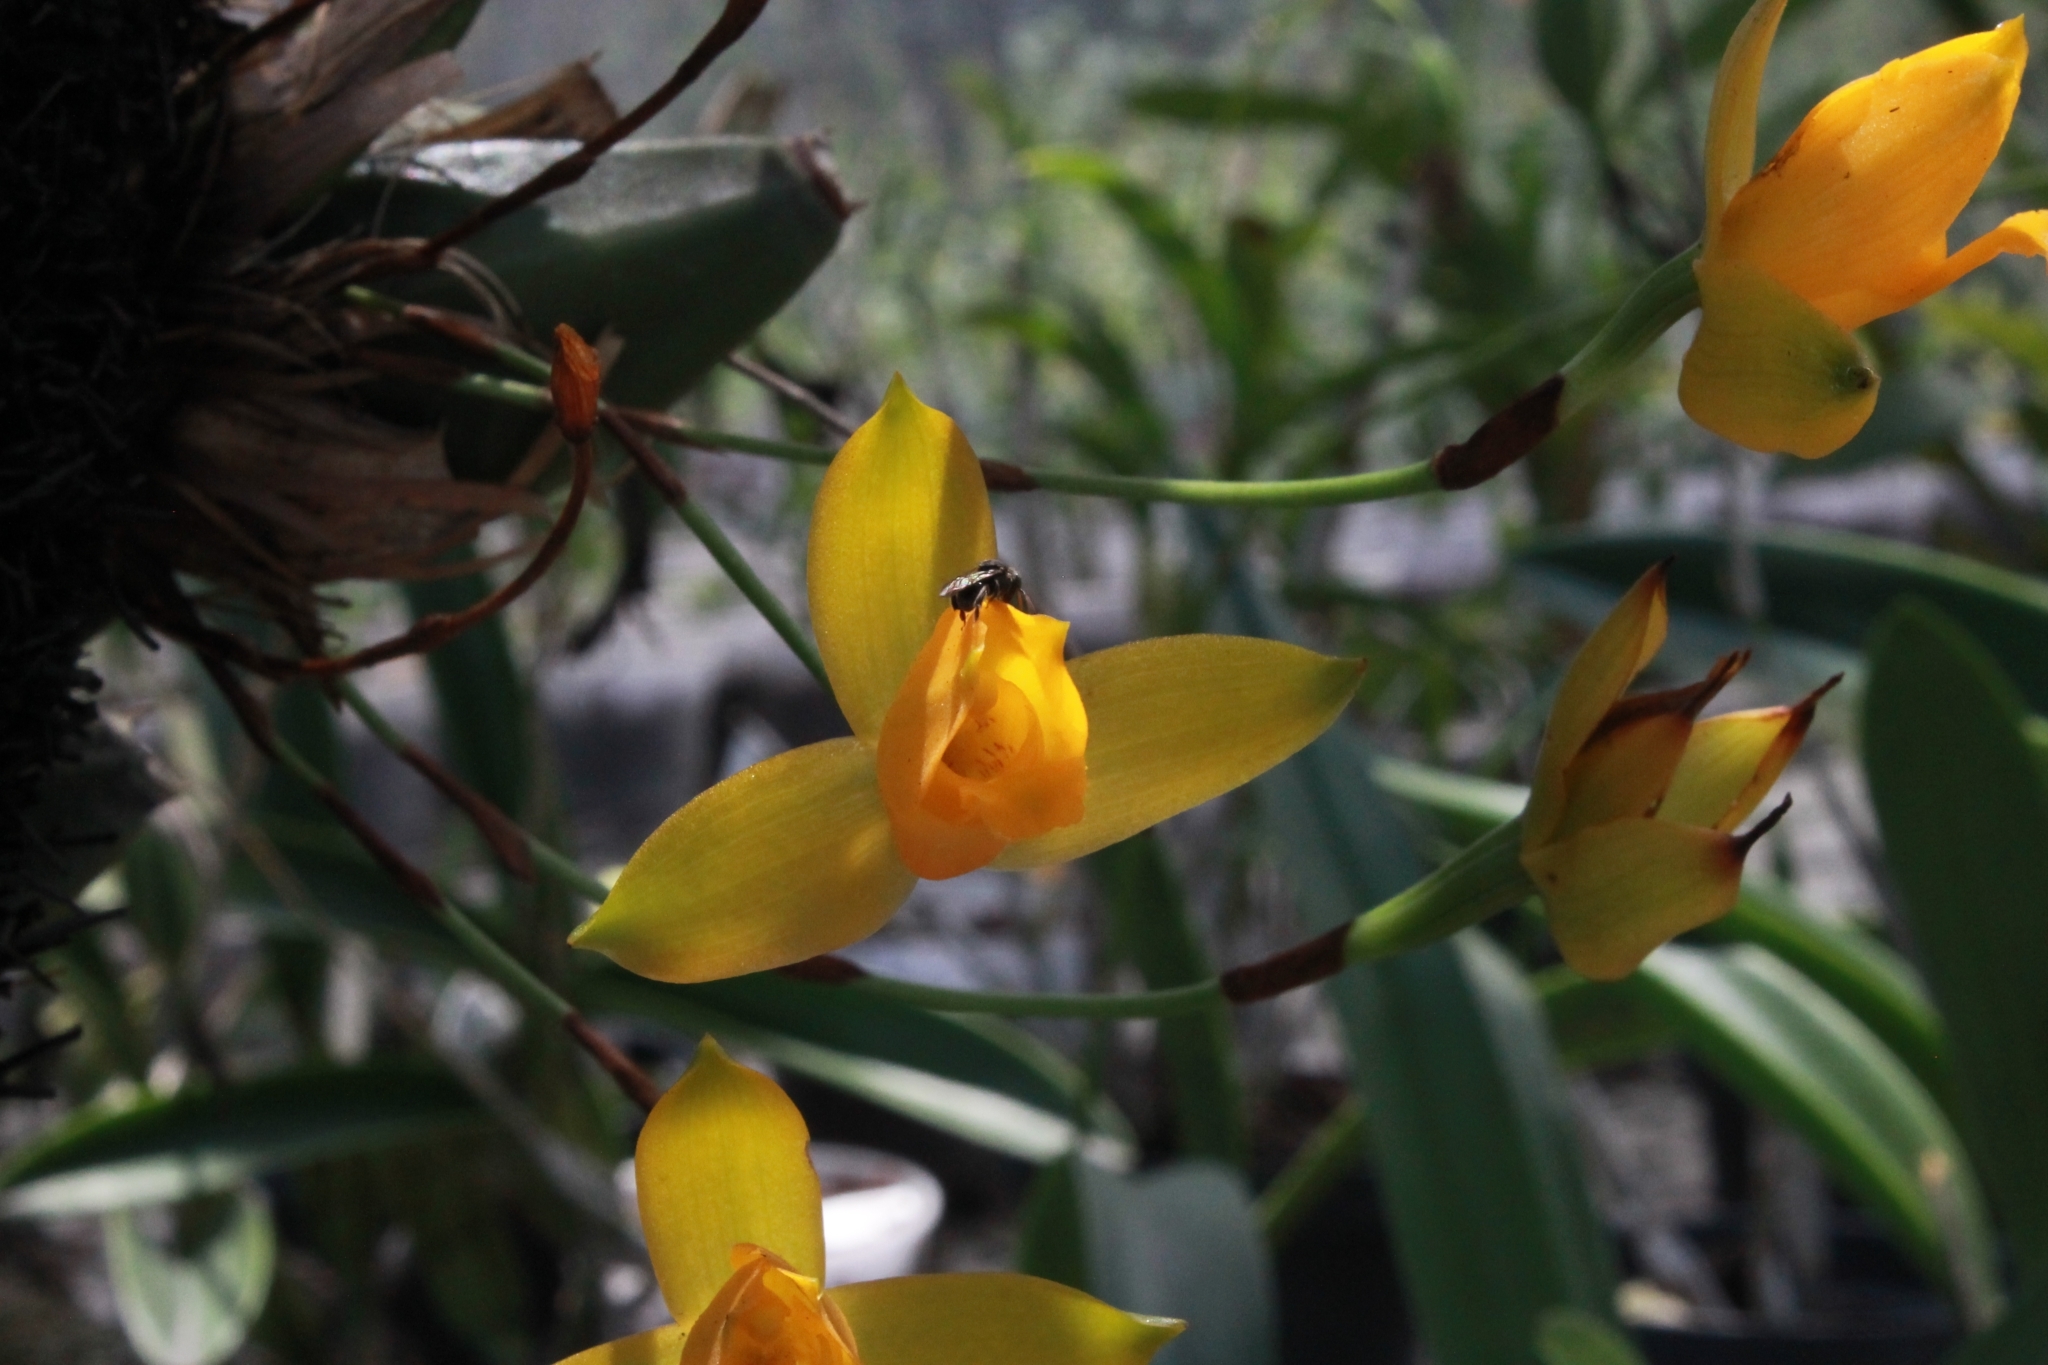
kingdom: Animalia
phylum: Arthropoda
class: Insecta
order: Hymenoptera
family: Apidae
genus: Nannotrigona
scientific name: Nannotrigona perilampoides
